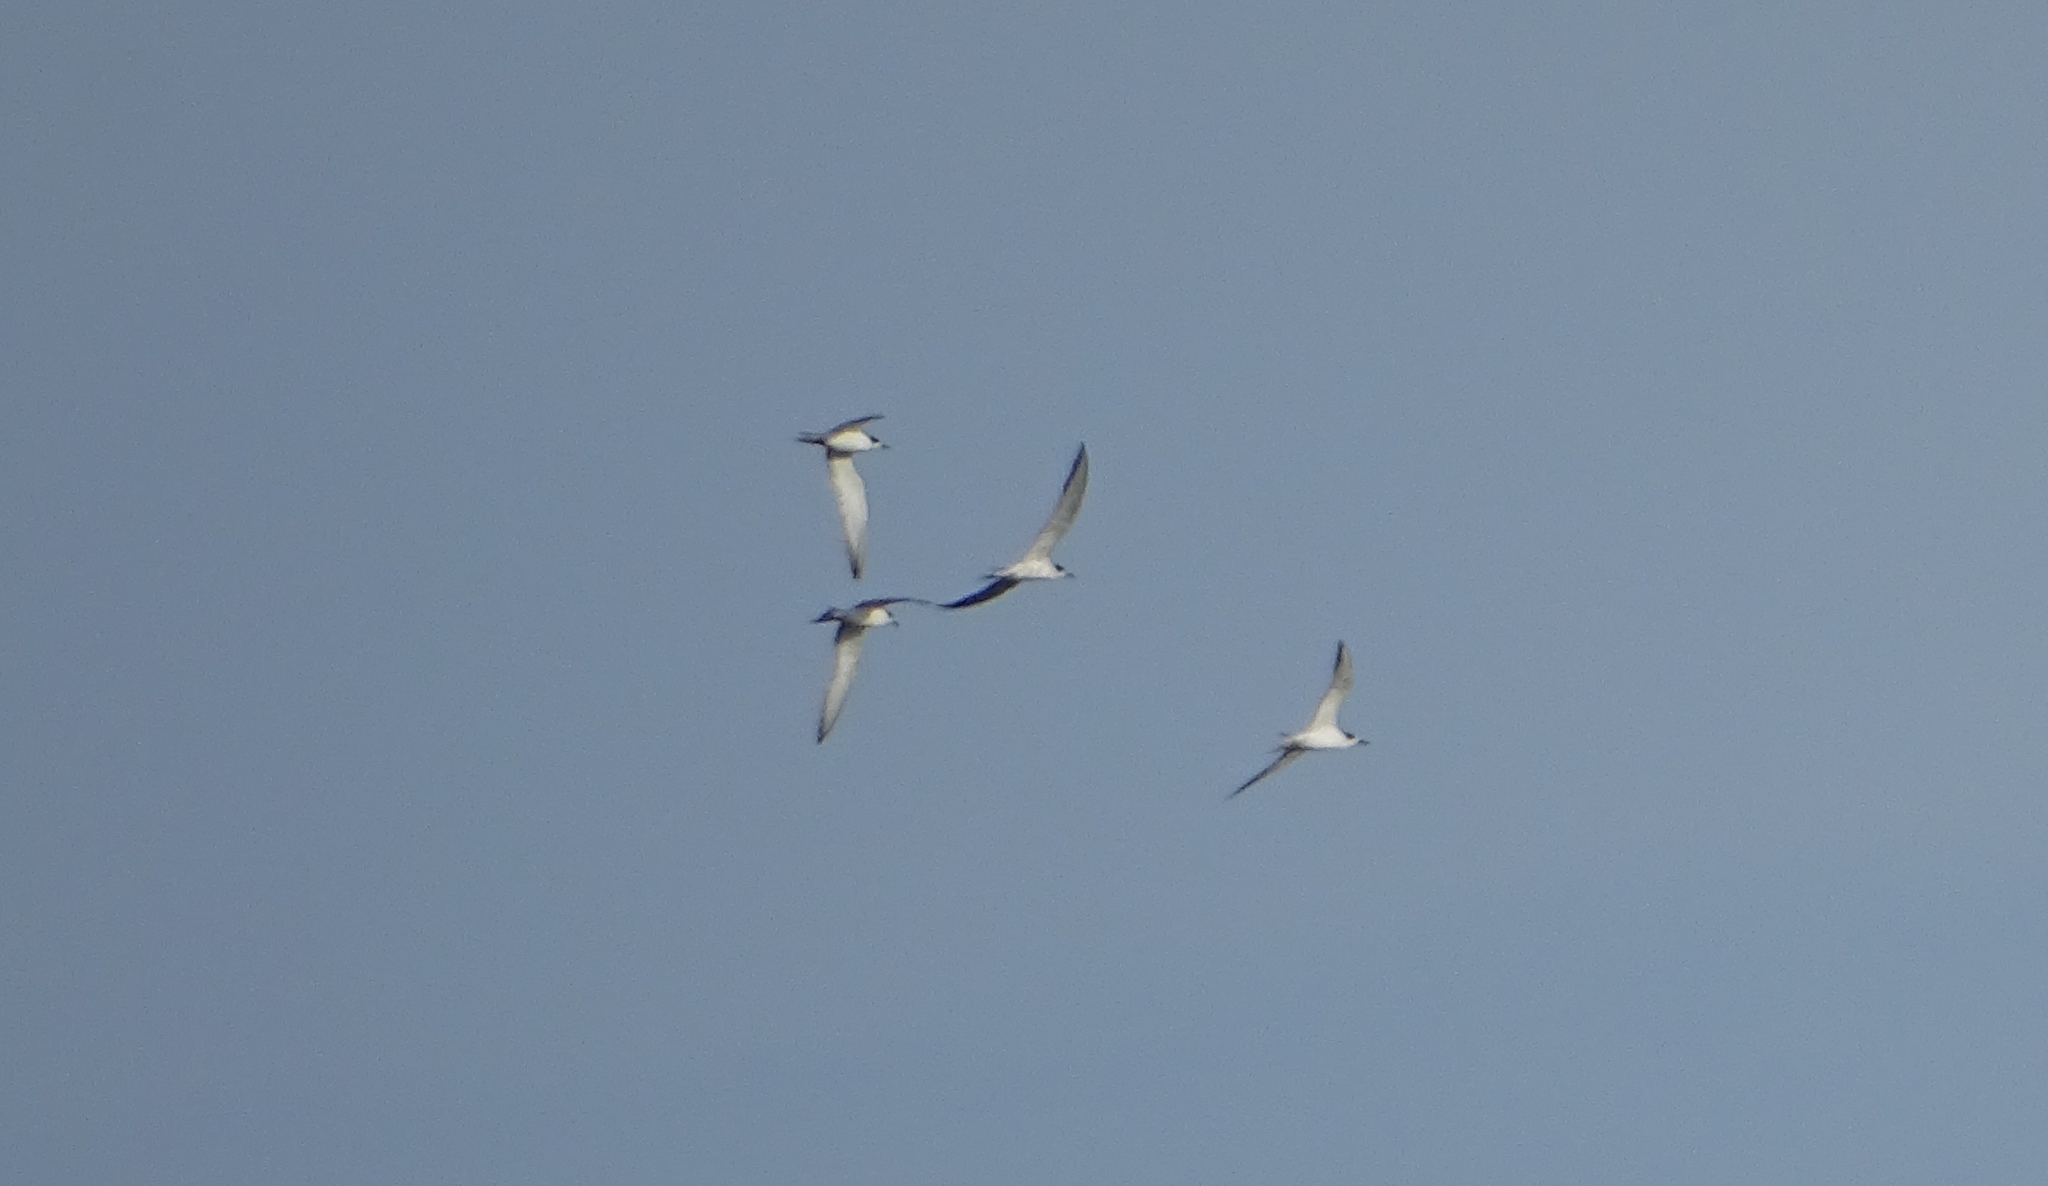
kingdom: Animalia
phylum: Chordata
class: Aves
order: Charadriiformes
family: Laridae
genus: Gelochelidon
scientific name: Gelochelidon nilotica
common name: Gull-billed tern
